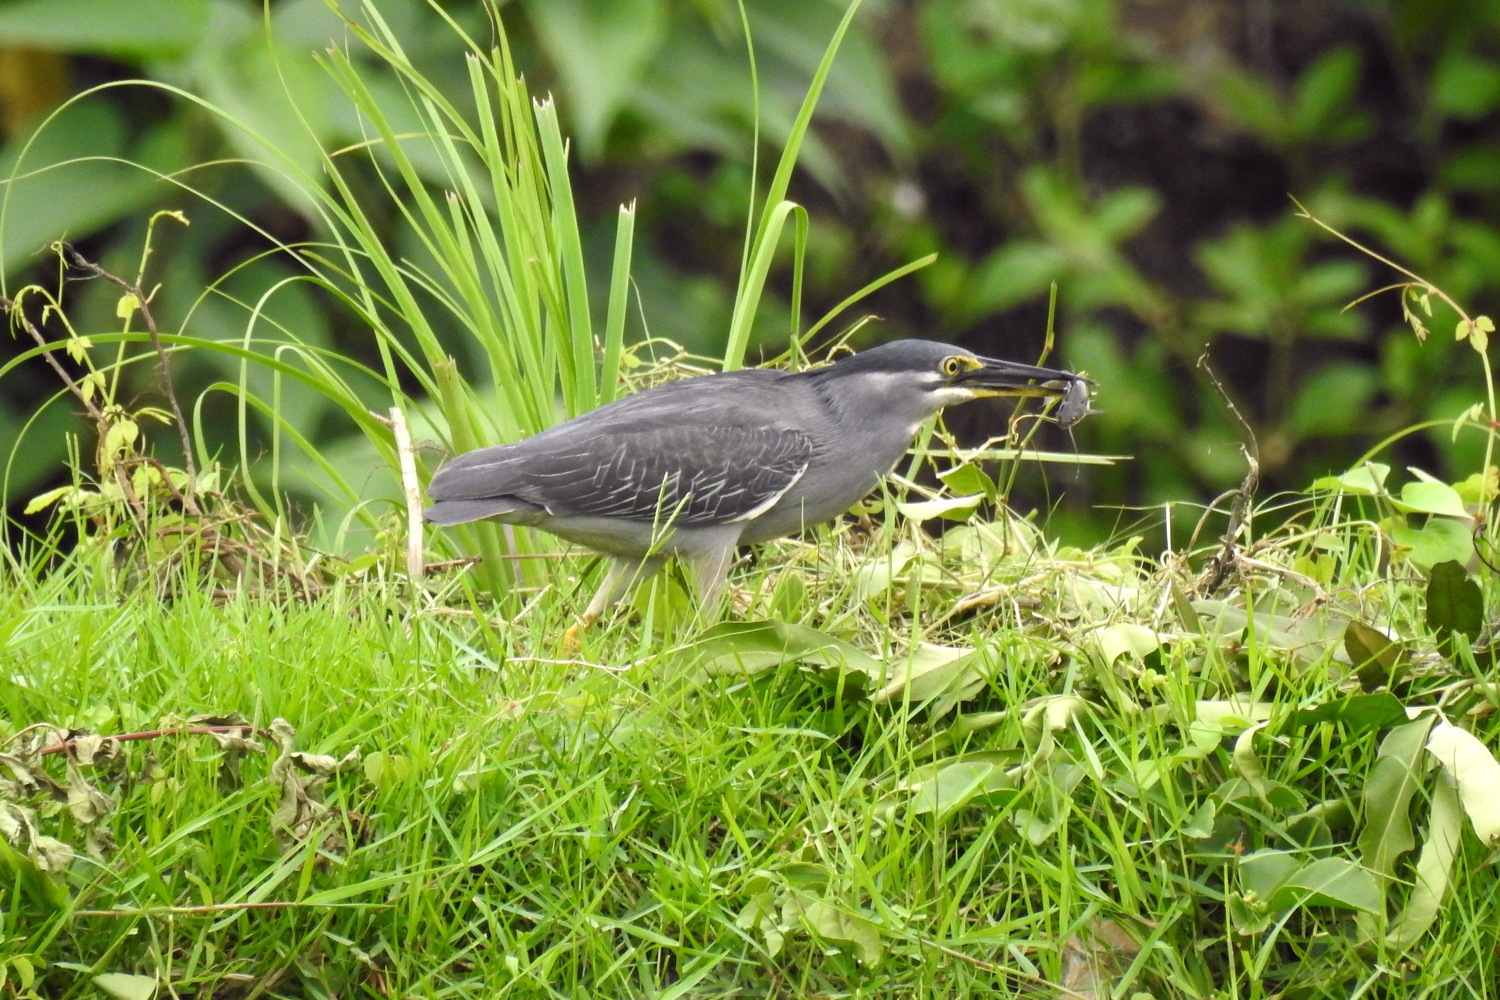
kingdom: Animalia
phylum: Chordata
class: Aves
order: Pelecaniformes
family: Ardeidae
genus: Butorides
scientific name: Butorides striata
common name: Striated heron
